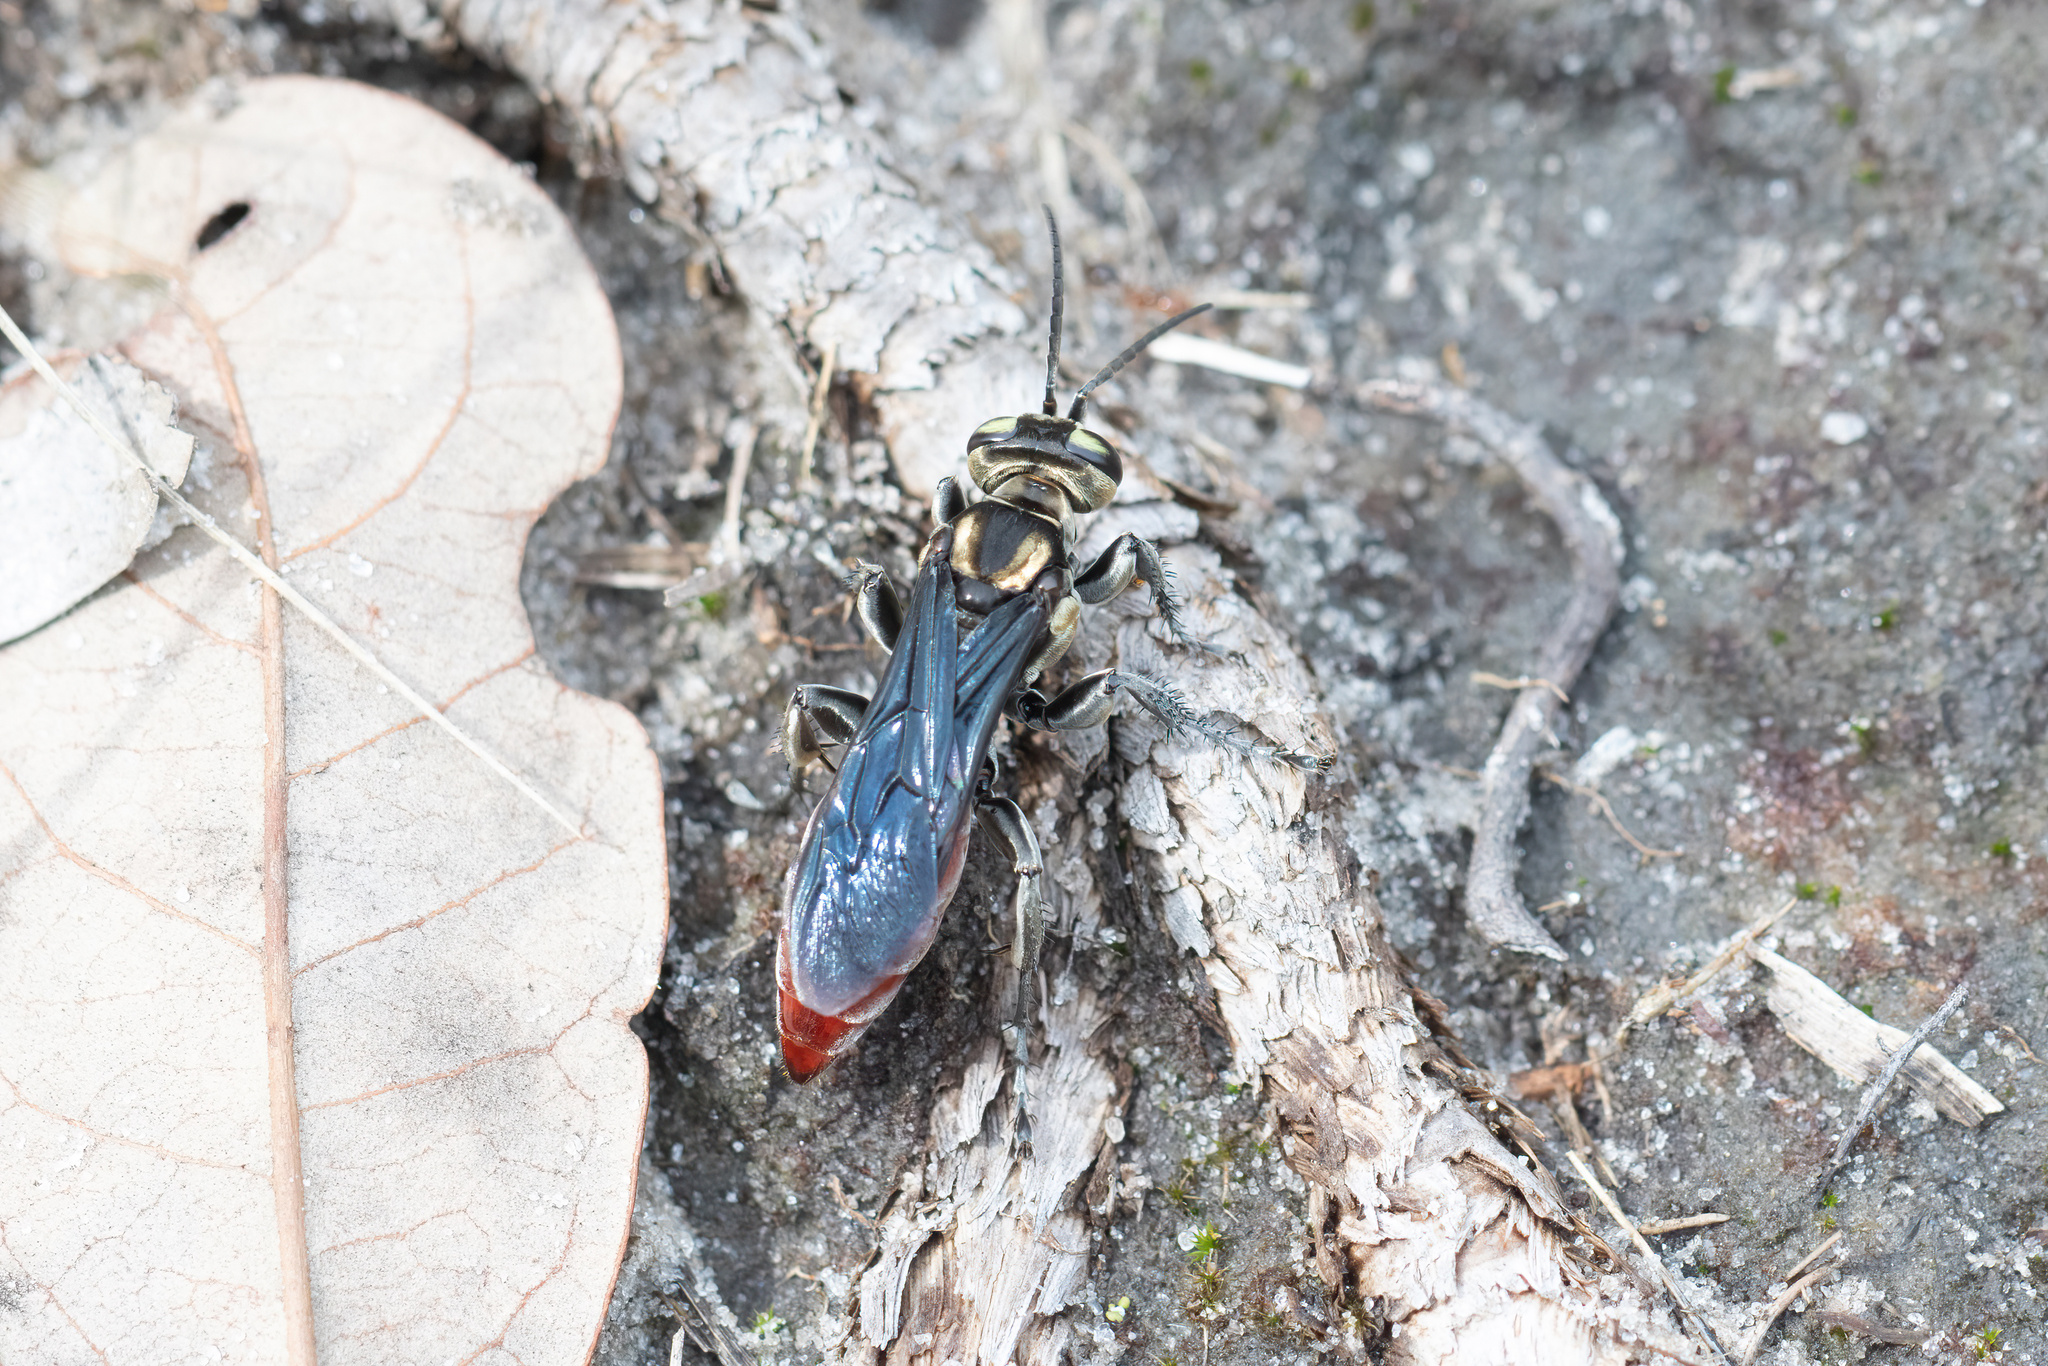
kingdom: Animalia
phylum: Arthropoda
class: Insecta
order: Hymenoptera
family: Crabronidae
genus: Larra
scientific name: Larra bicolor
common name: Wasp
